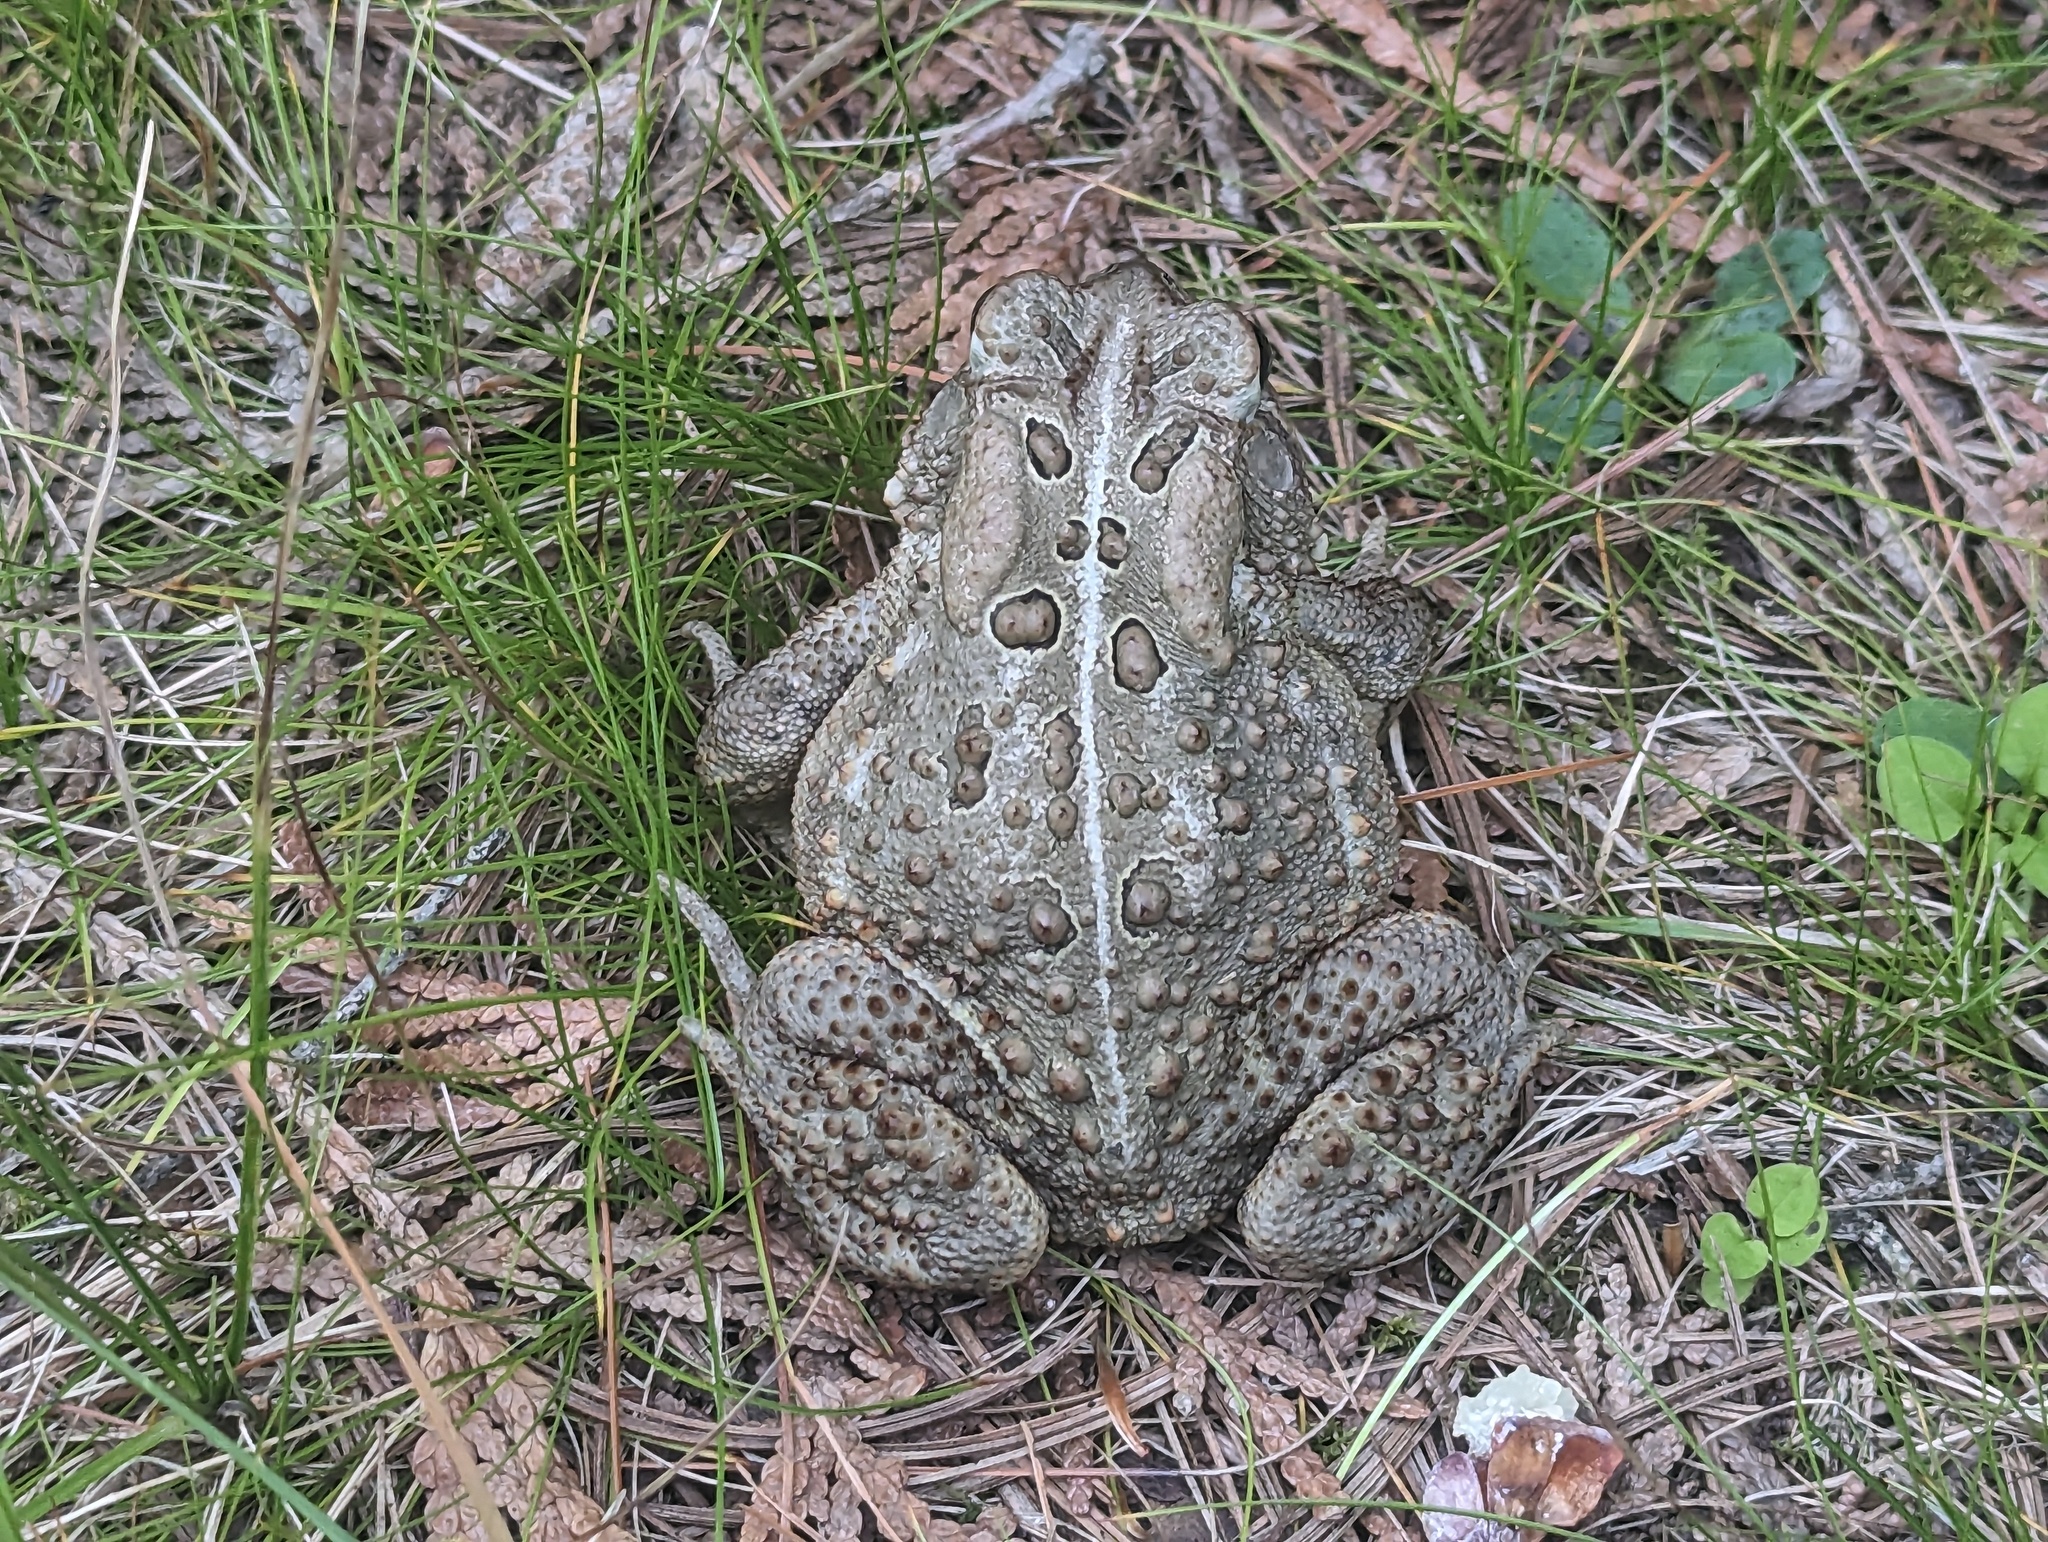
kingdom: Animalia
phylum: Chordata
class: Amphibia
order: Anura
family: Bufonidae
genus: Anaxyrus
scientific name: Anaxyrus americanus
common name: American toad
